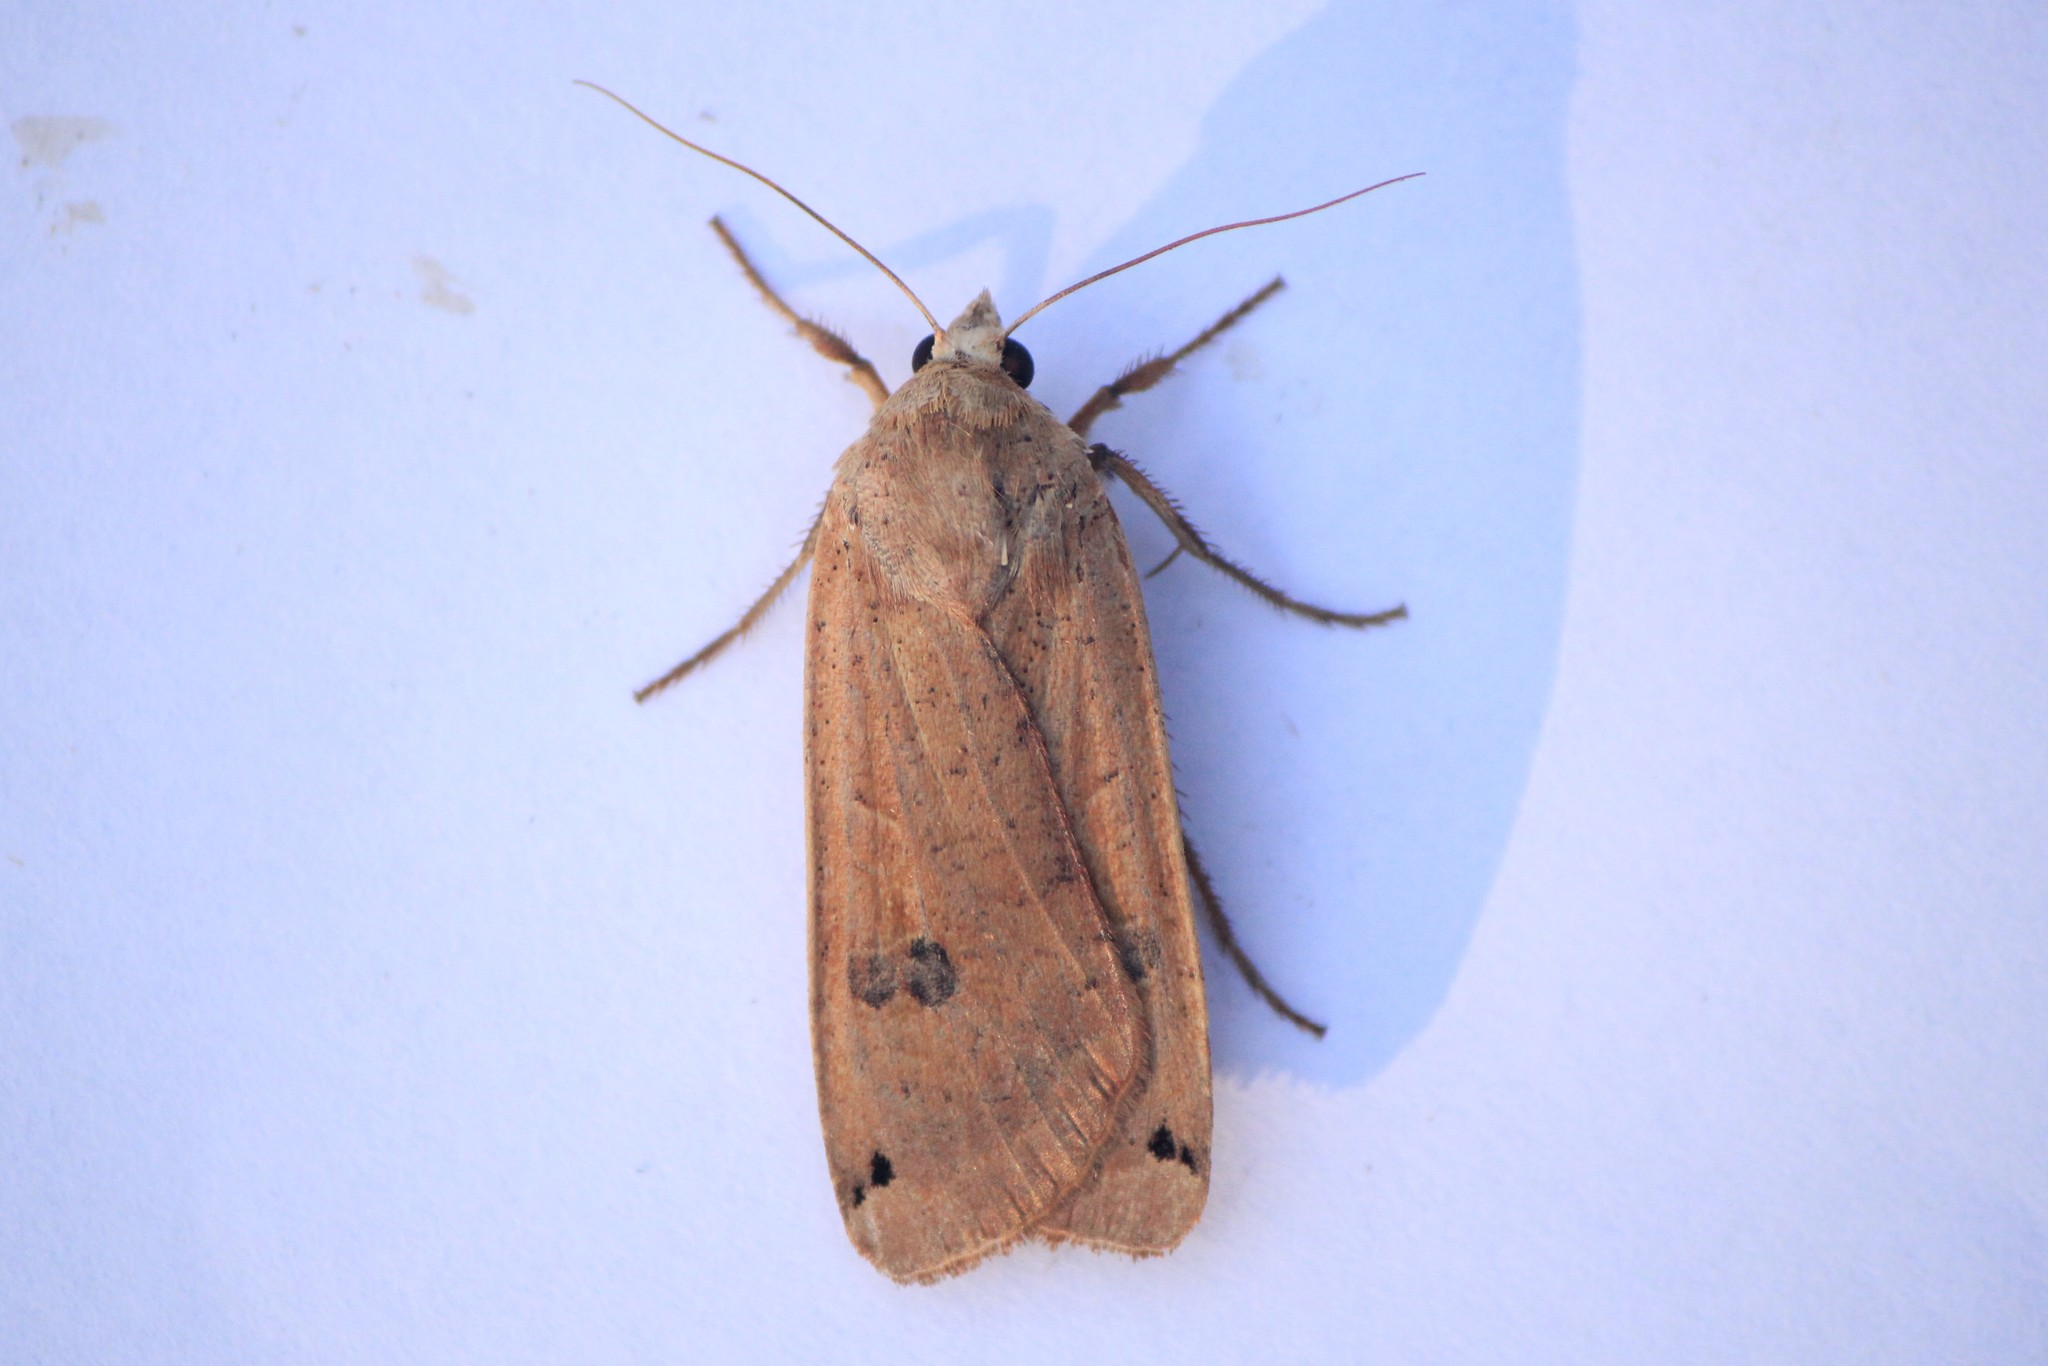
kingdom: Animalia
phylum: Arthropoda
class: Insecta
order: Lepidoptera
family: Noctuidae
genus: Noctua
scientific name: Noctua pronuba
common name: Large yellow underwing
